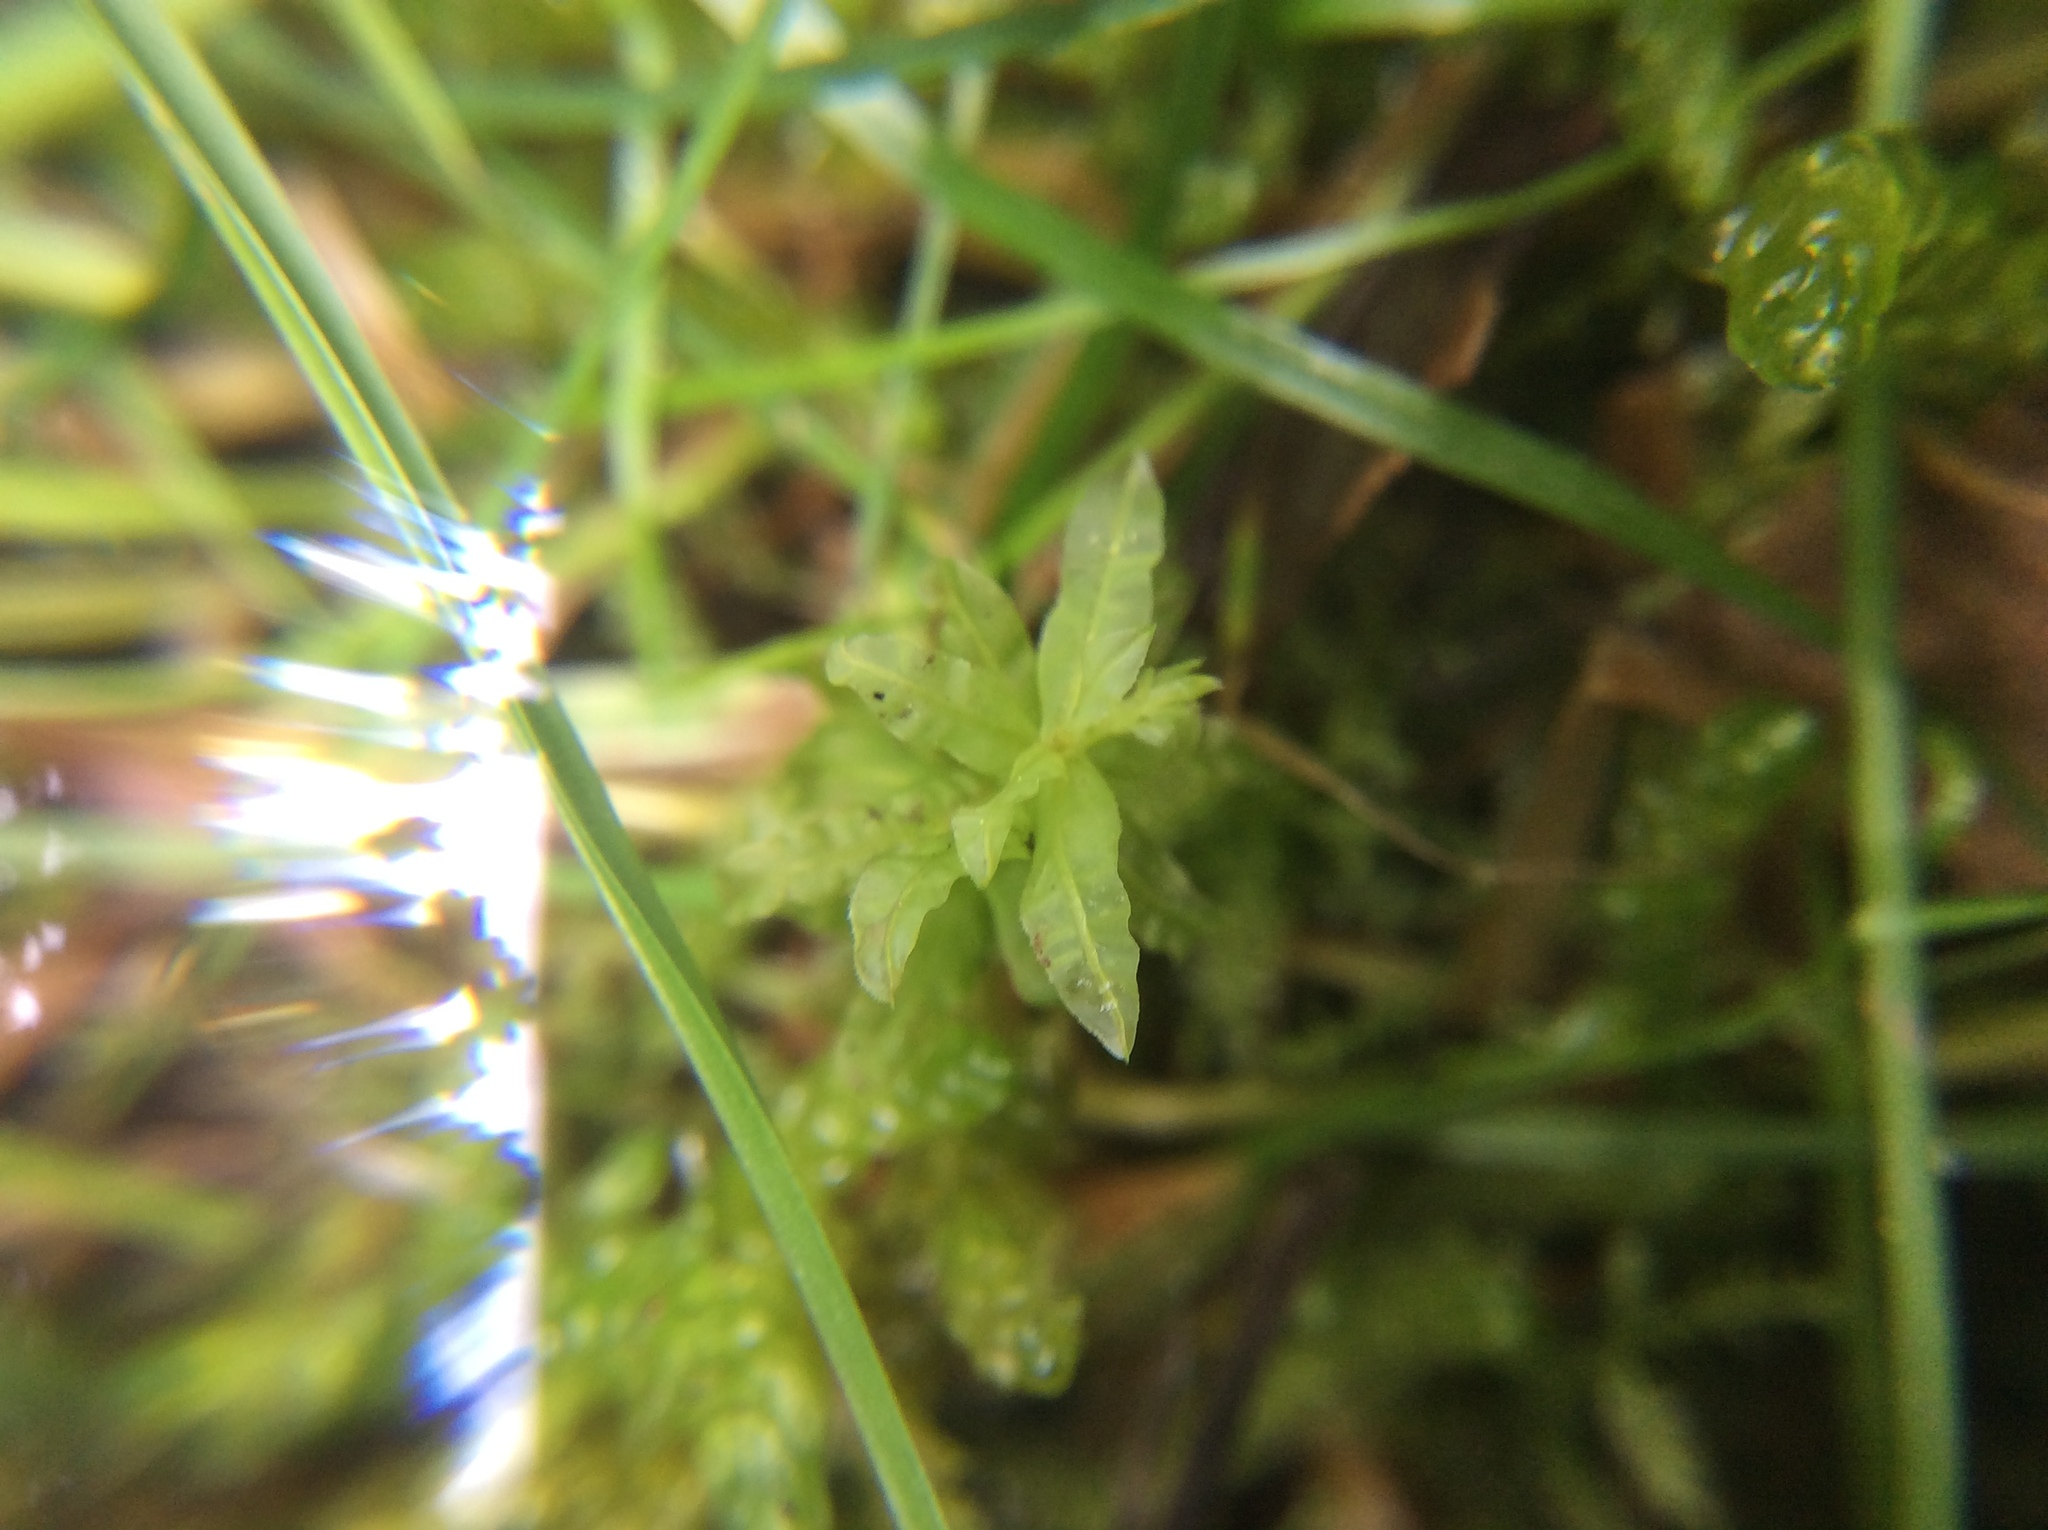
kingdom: Plantae
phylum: Bryophyta
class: Bryopsida
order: Bryales
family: Mniaceae
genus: Plagiomnium
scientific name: Plagiomnium undulatum
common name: Hart's-tongue thyme-moss
